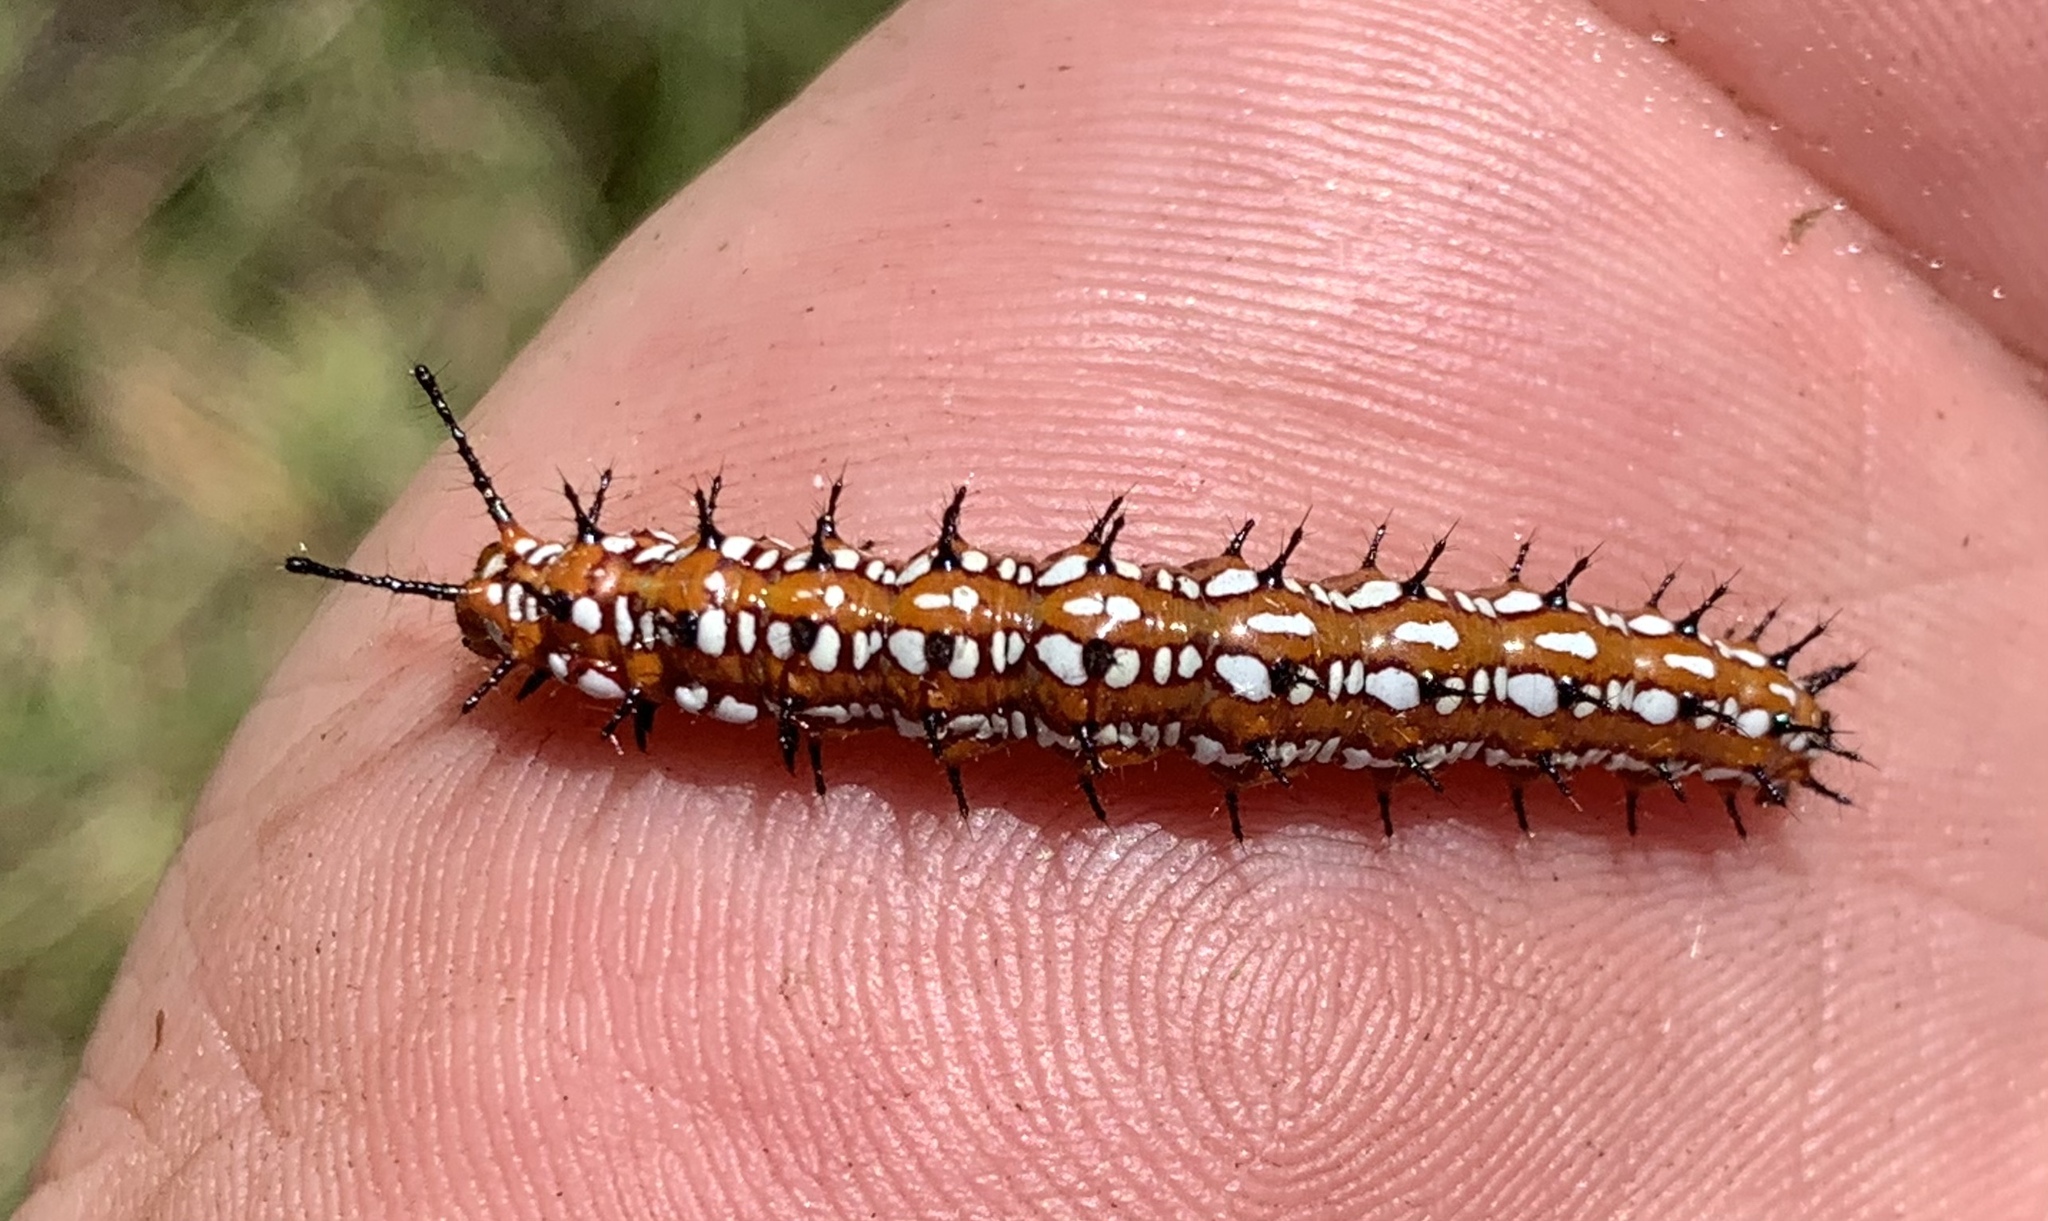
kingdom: Animalia
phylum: Arthropoda
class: Insecta
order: Lepidoptera
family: Nymphalidae
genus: Euptoieta
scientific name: Euptoieta claudia
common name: Variegated fritillary
